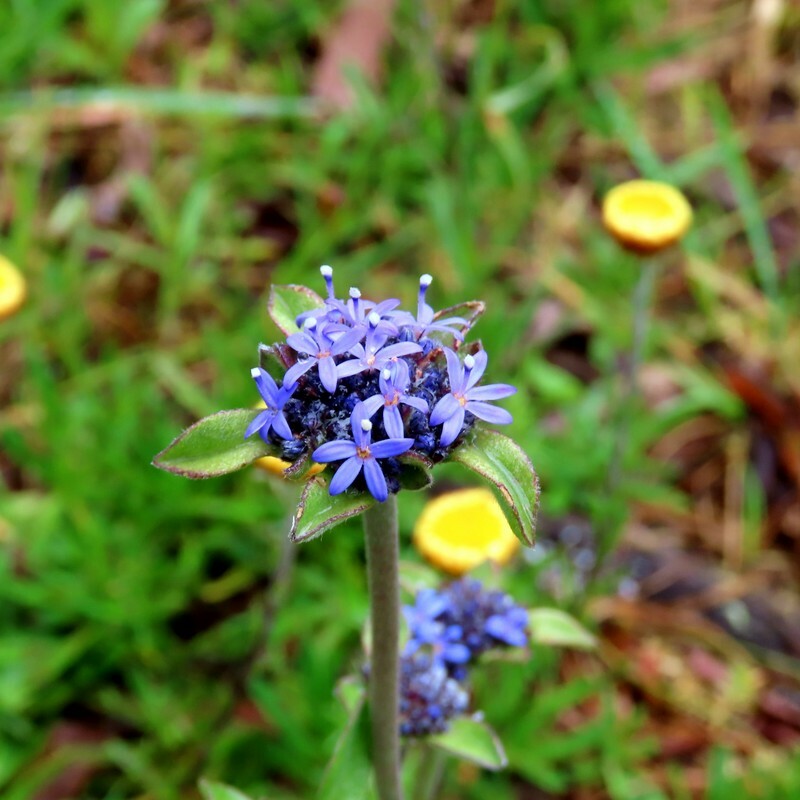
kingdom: Plantae
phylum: Tracheophyta
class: Magnoliopsida
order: Asterales
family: Goodeniaceae
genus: Brunonia
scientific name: Brunonia australis
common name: Blue pincushion
